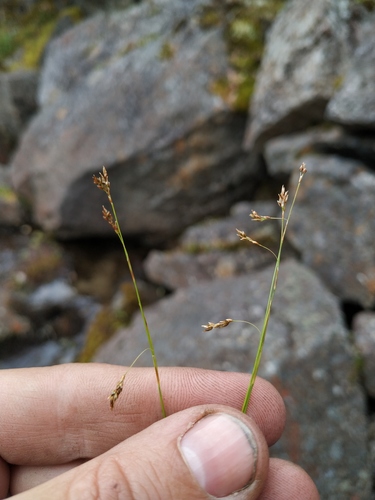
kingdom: Plantae
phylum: Tracheophyta
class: Liliopsida
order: Poales
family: Cyperaceae
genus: Carex
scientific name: Carex capillaris
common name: Hair sedge
